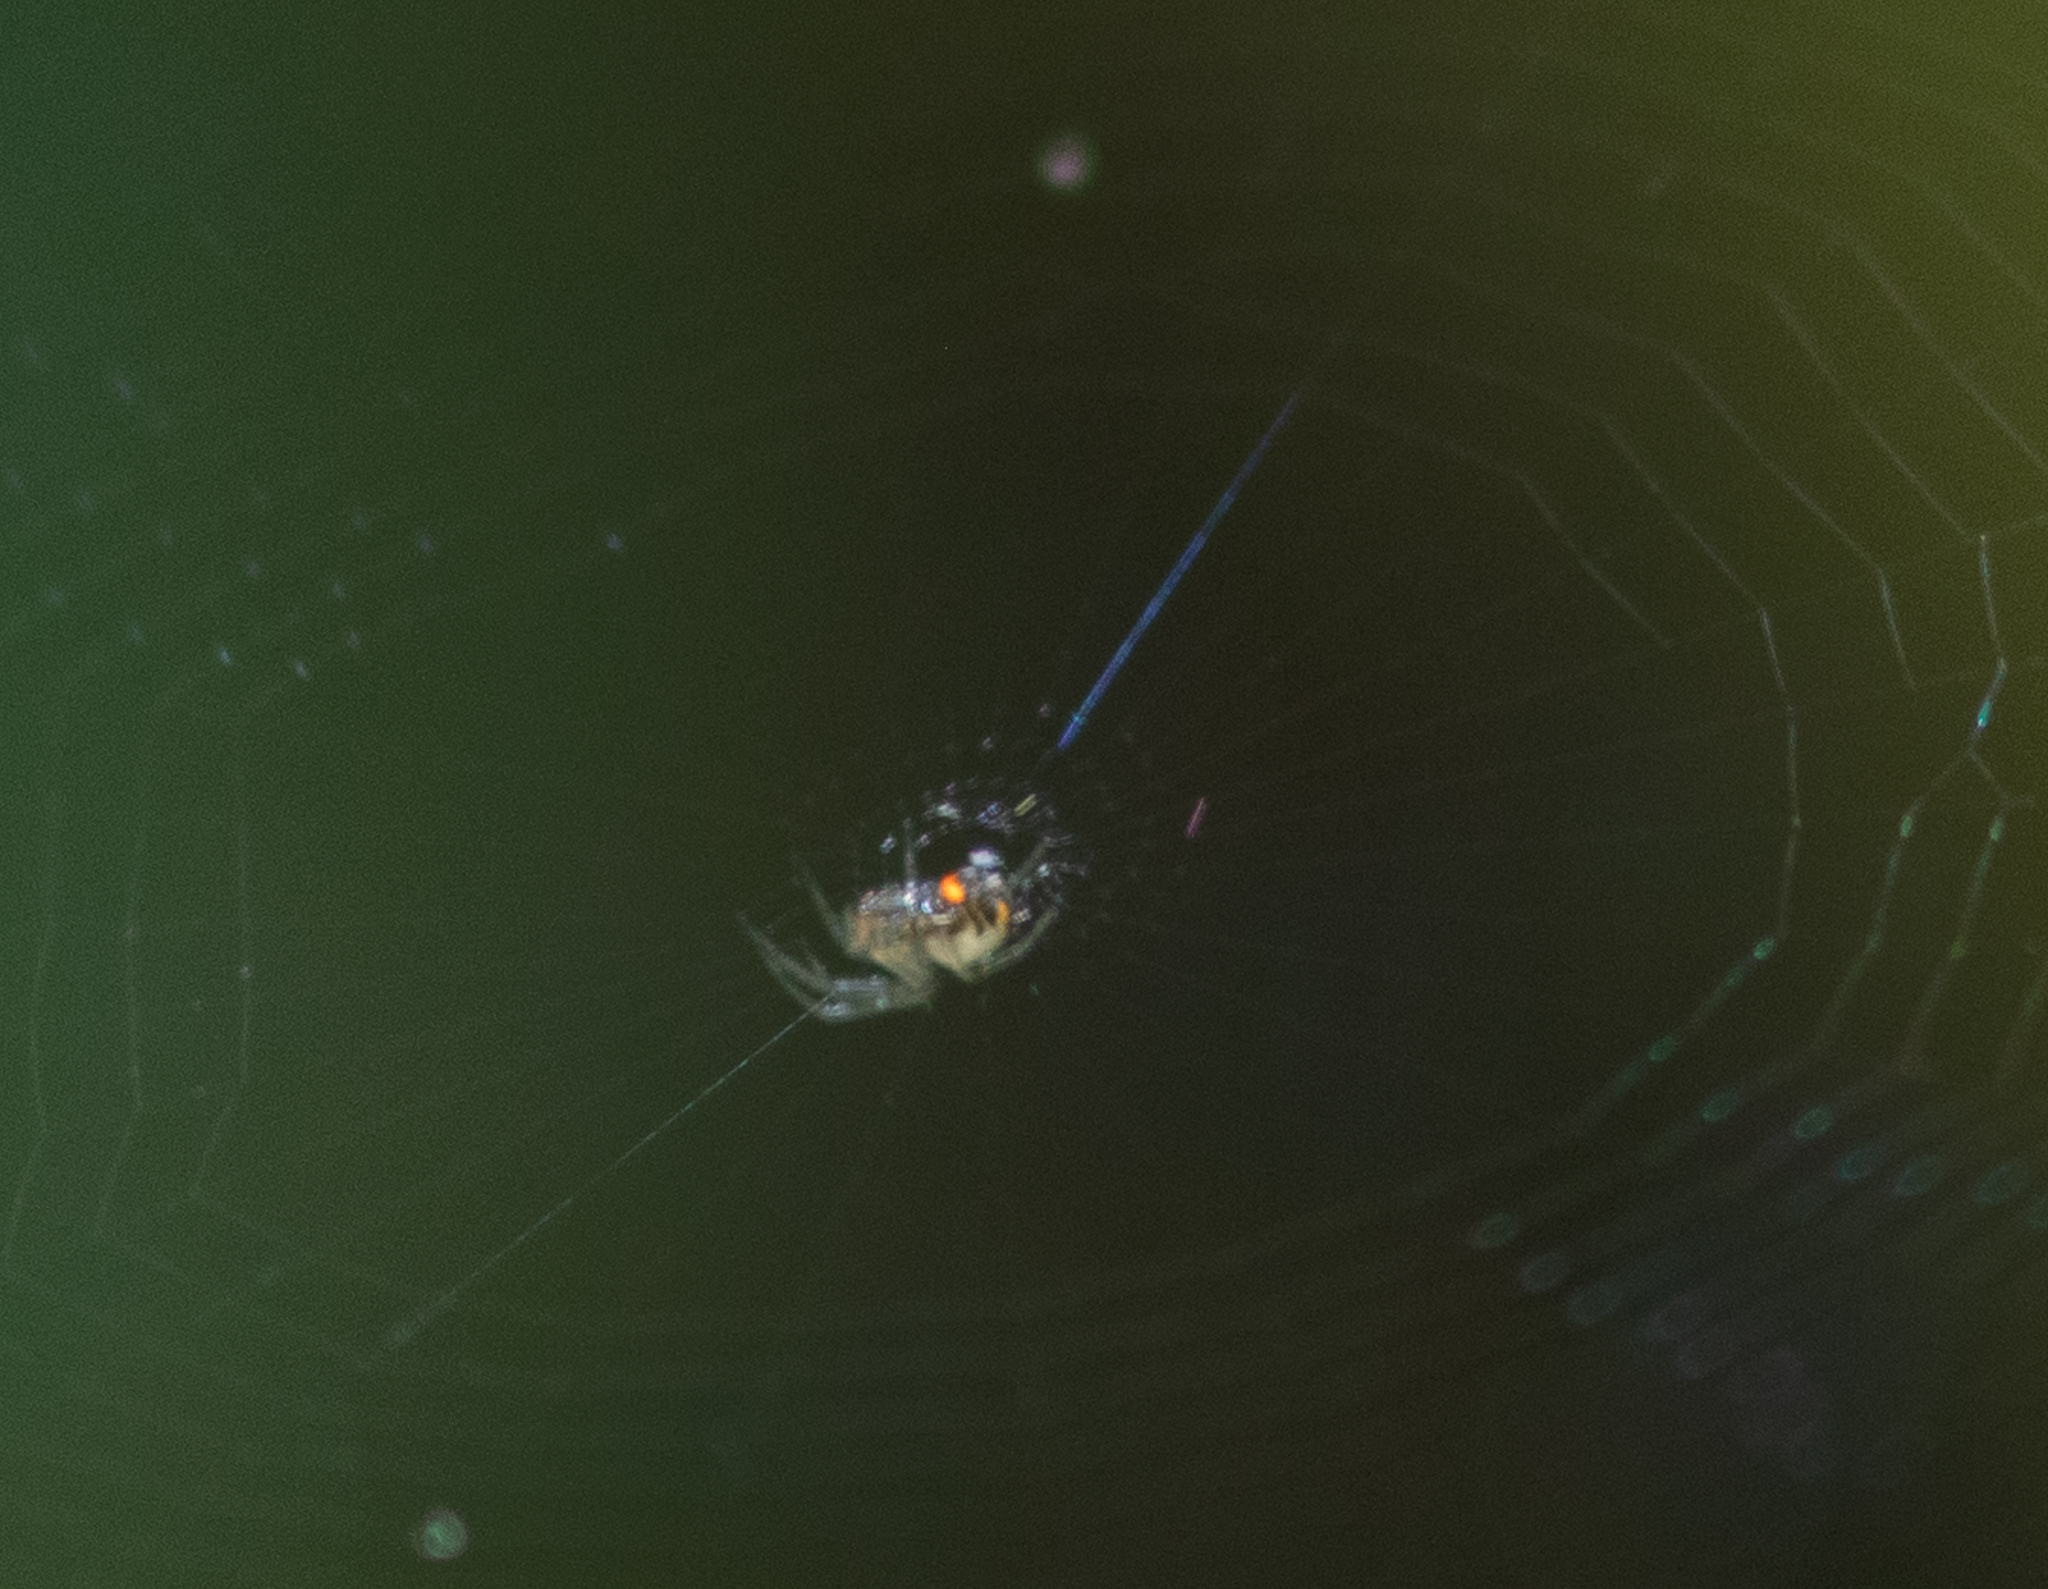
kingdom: Animalia
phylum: Arthropoda
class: Arachnida
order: Araneae
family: Tetragnathidae
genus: Leucauge
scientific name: Leucauge venusta
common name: Longjawed orb weavers
